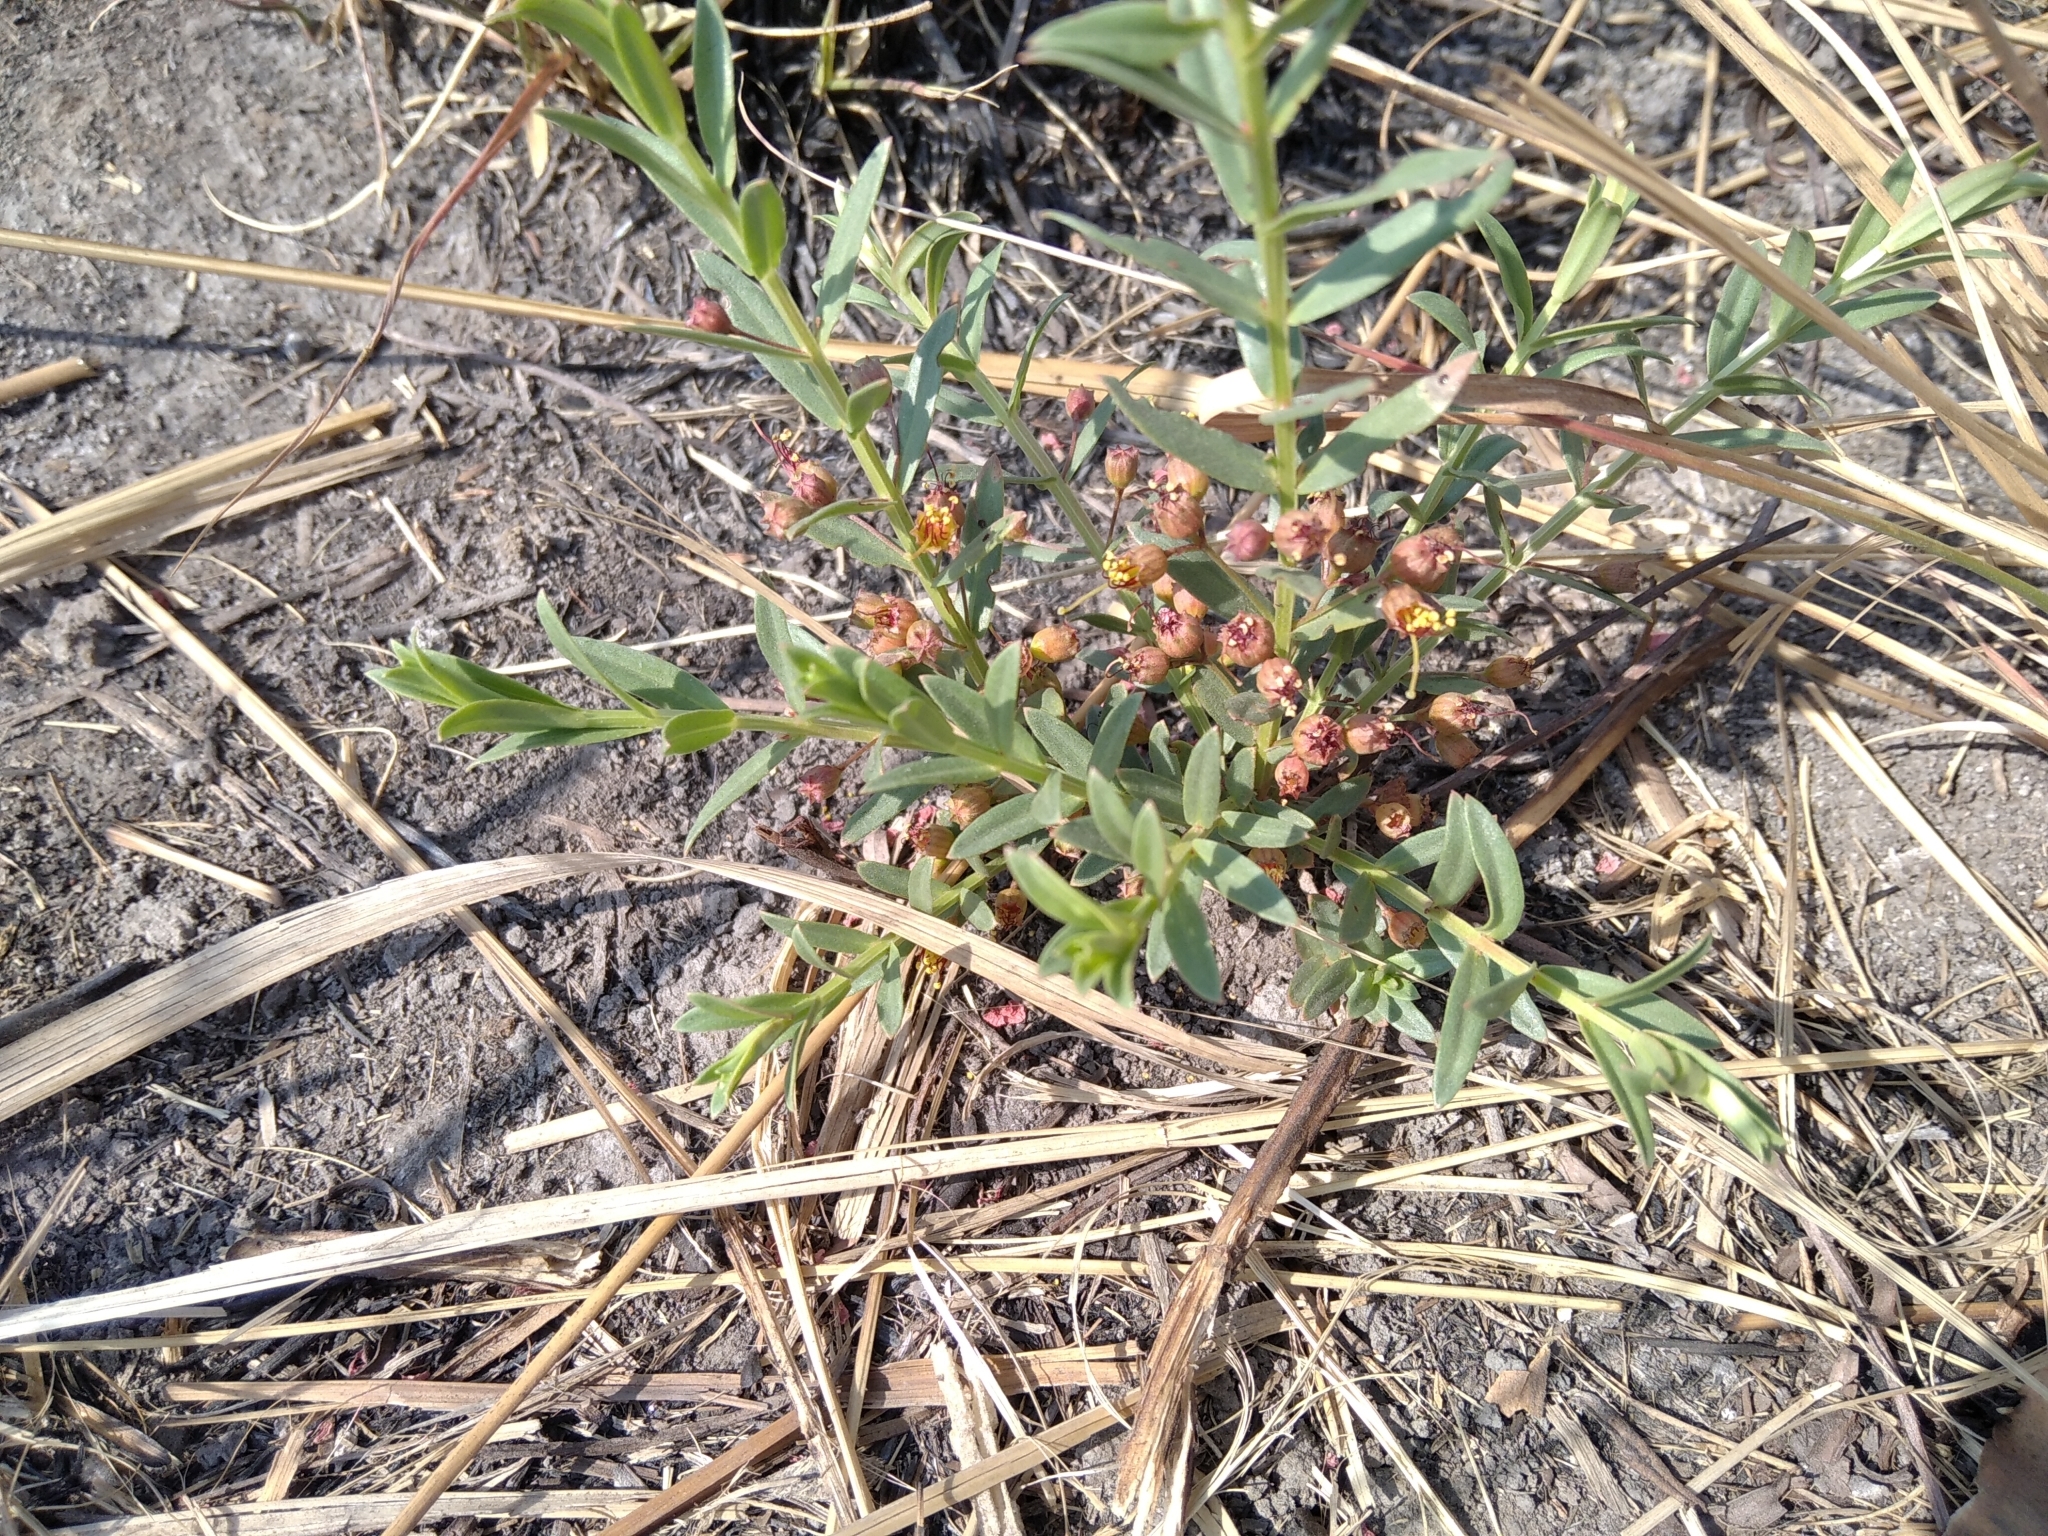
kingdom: Plantae
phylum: Tracheophyta
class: Magnoliopsida
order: Myrtales
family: Lythraceae
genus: Ammannia
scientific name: Ammannia heptamera
